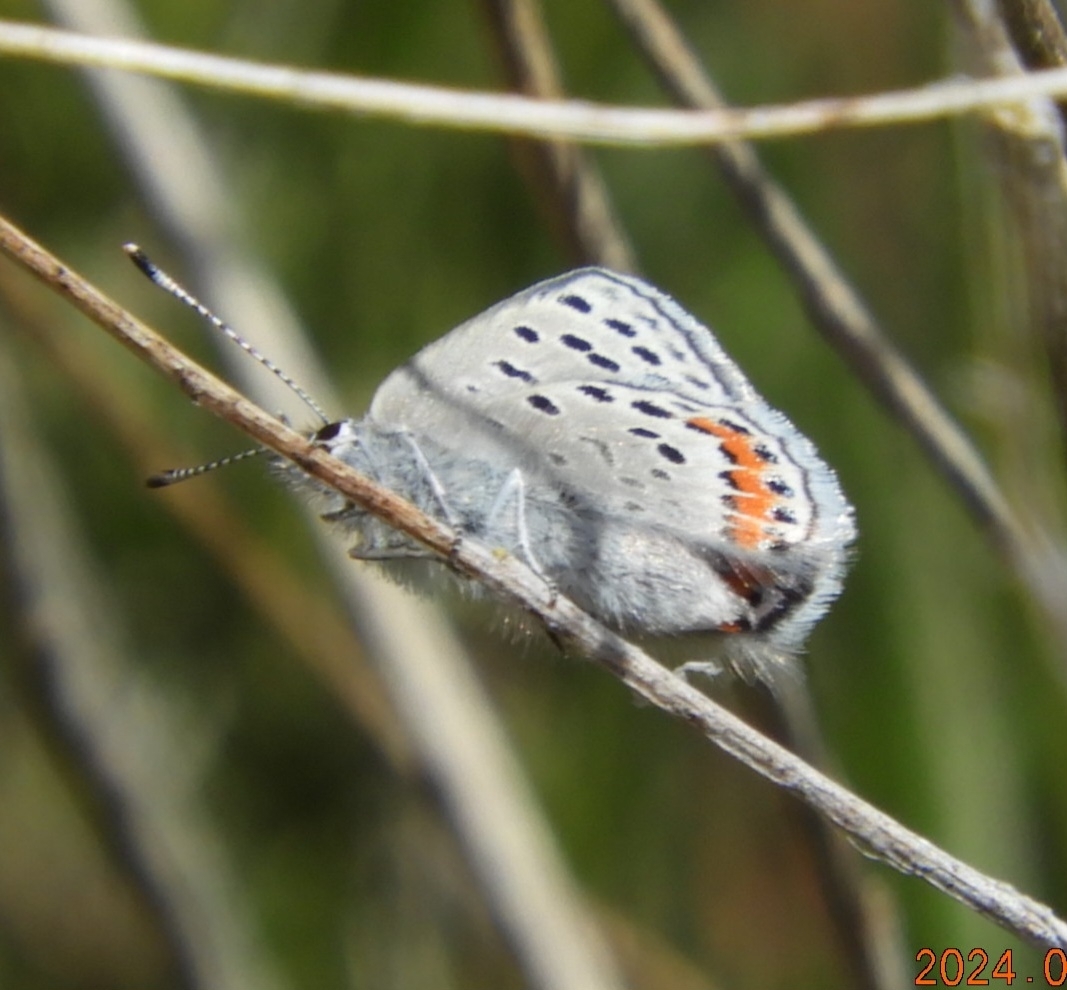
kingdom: Animalia
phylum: Arthropoda
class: Insecta
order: Lepidoptera
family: Lycaenidae
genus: Icaricia
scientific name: Icaricia acmon
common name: Acmon blue
